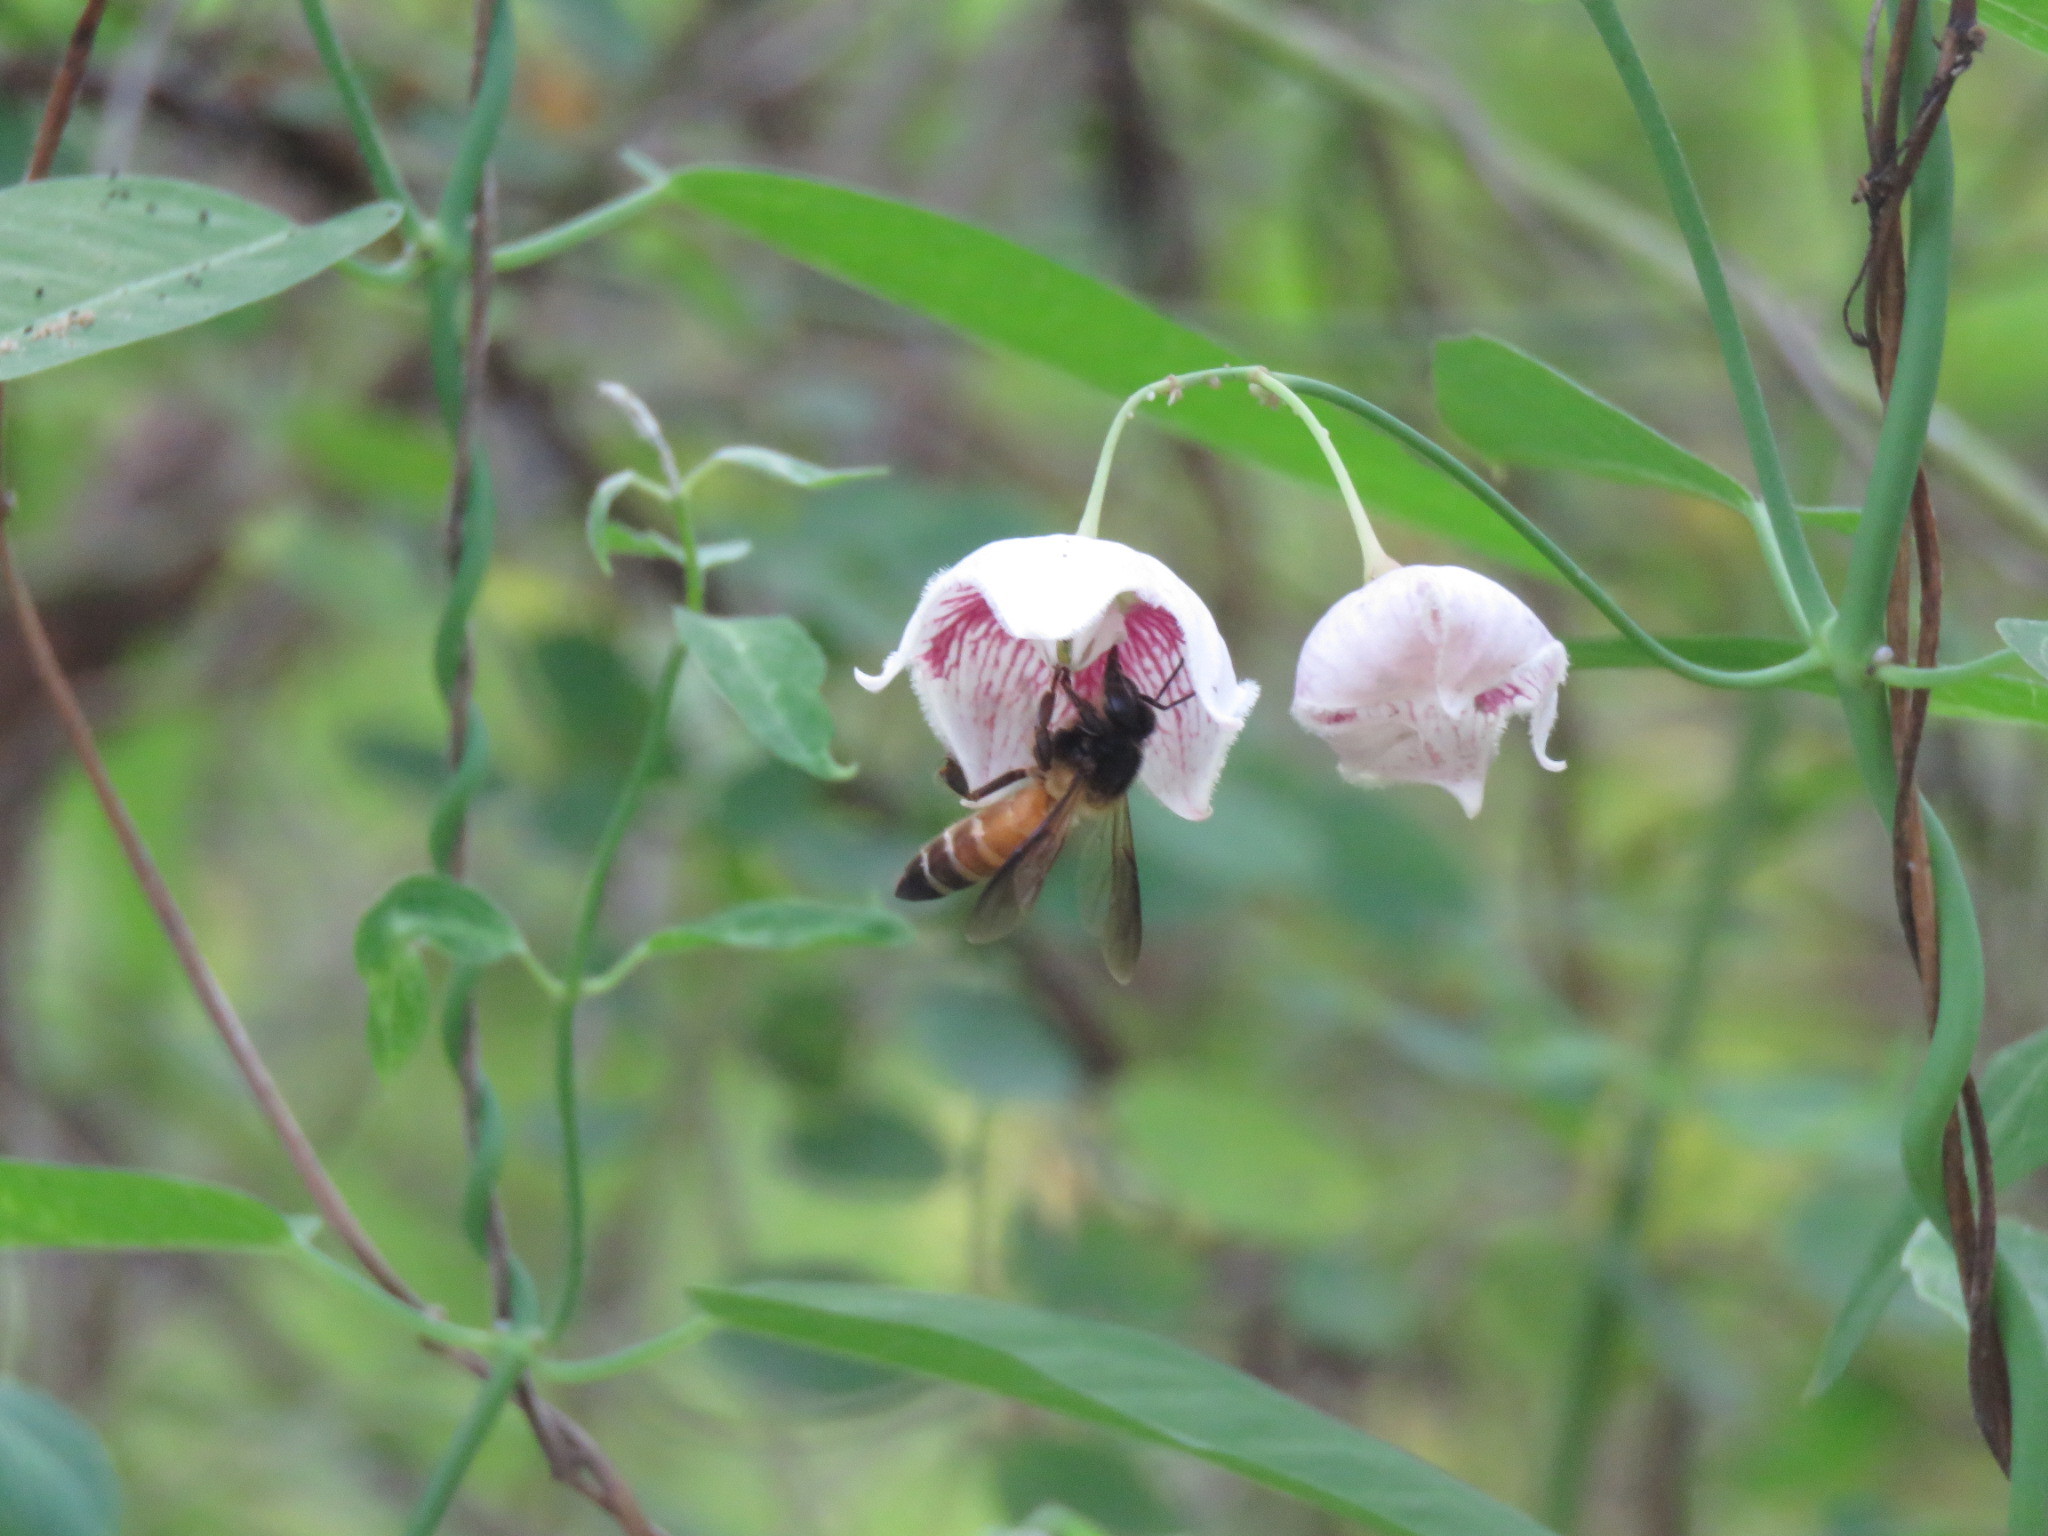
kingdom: Animalia
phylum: Arthropoda
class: Insecta
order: Hymenoptera
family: Apidae
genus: Apis
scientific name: Apis dorsata
